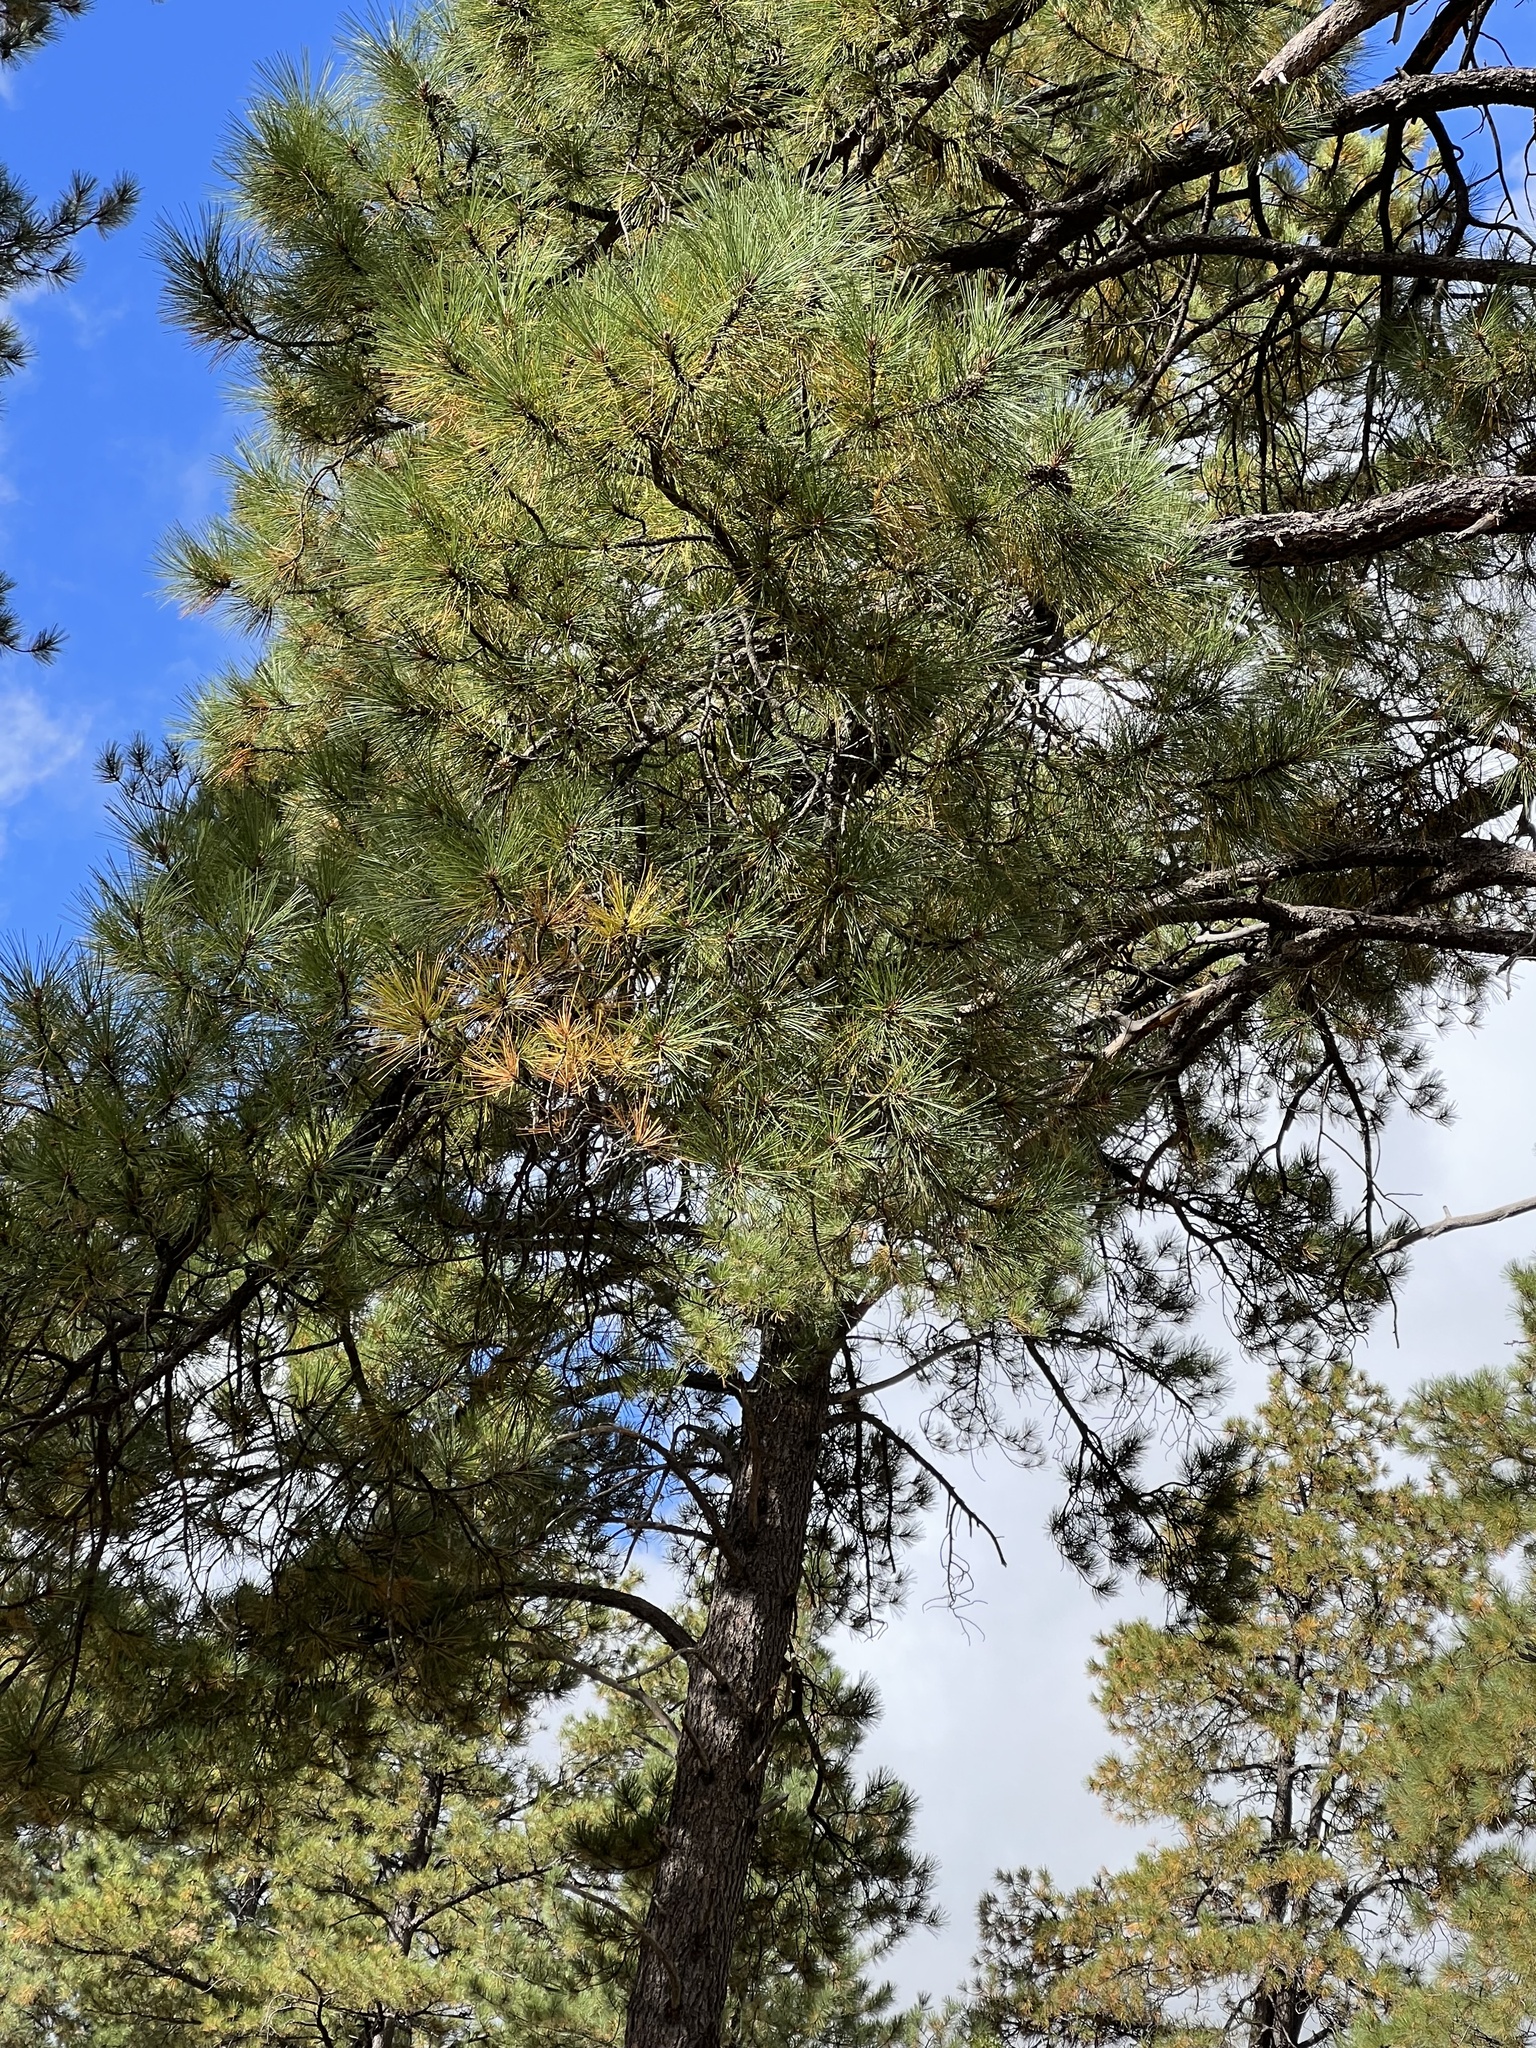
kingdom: Plantae
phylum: Tracheophyta
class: Pinopsida
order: Pinales
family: Pinaceae
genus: Pinus
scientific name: Pinus ponderosa
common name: Western yellow-pine
